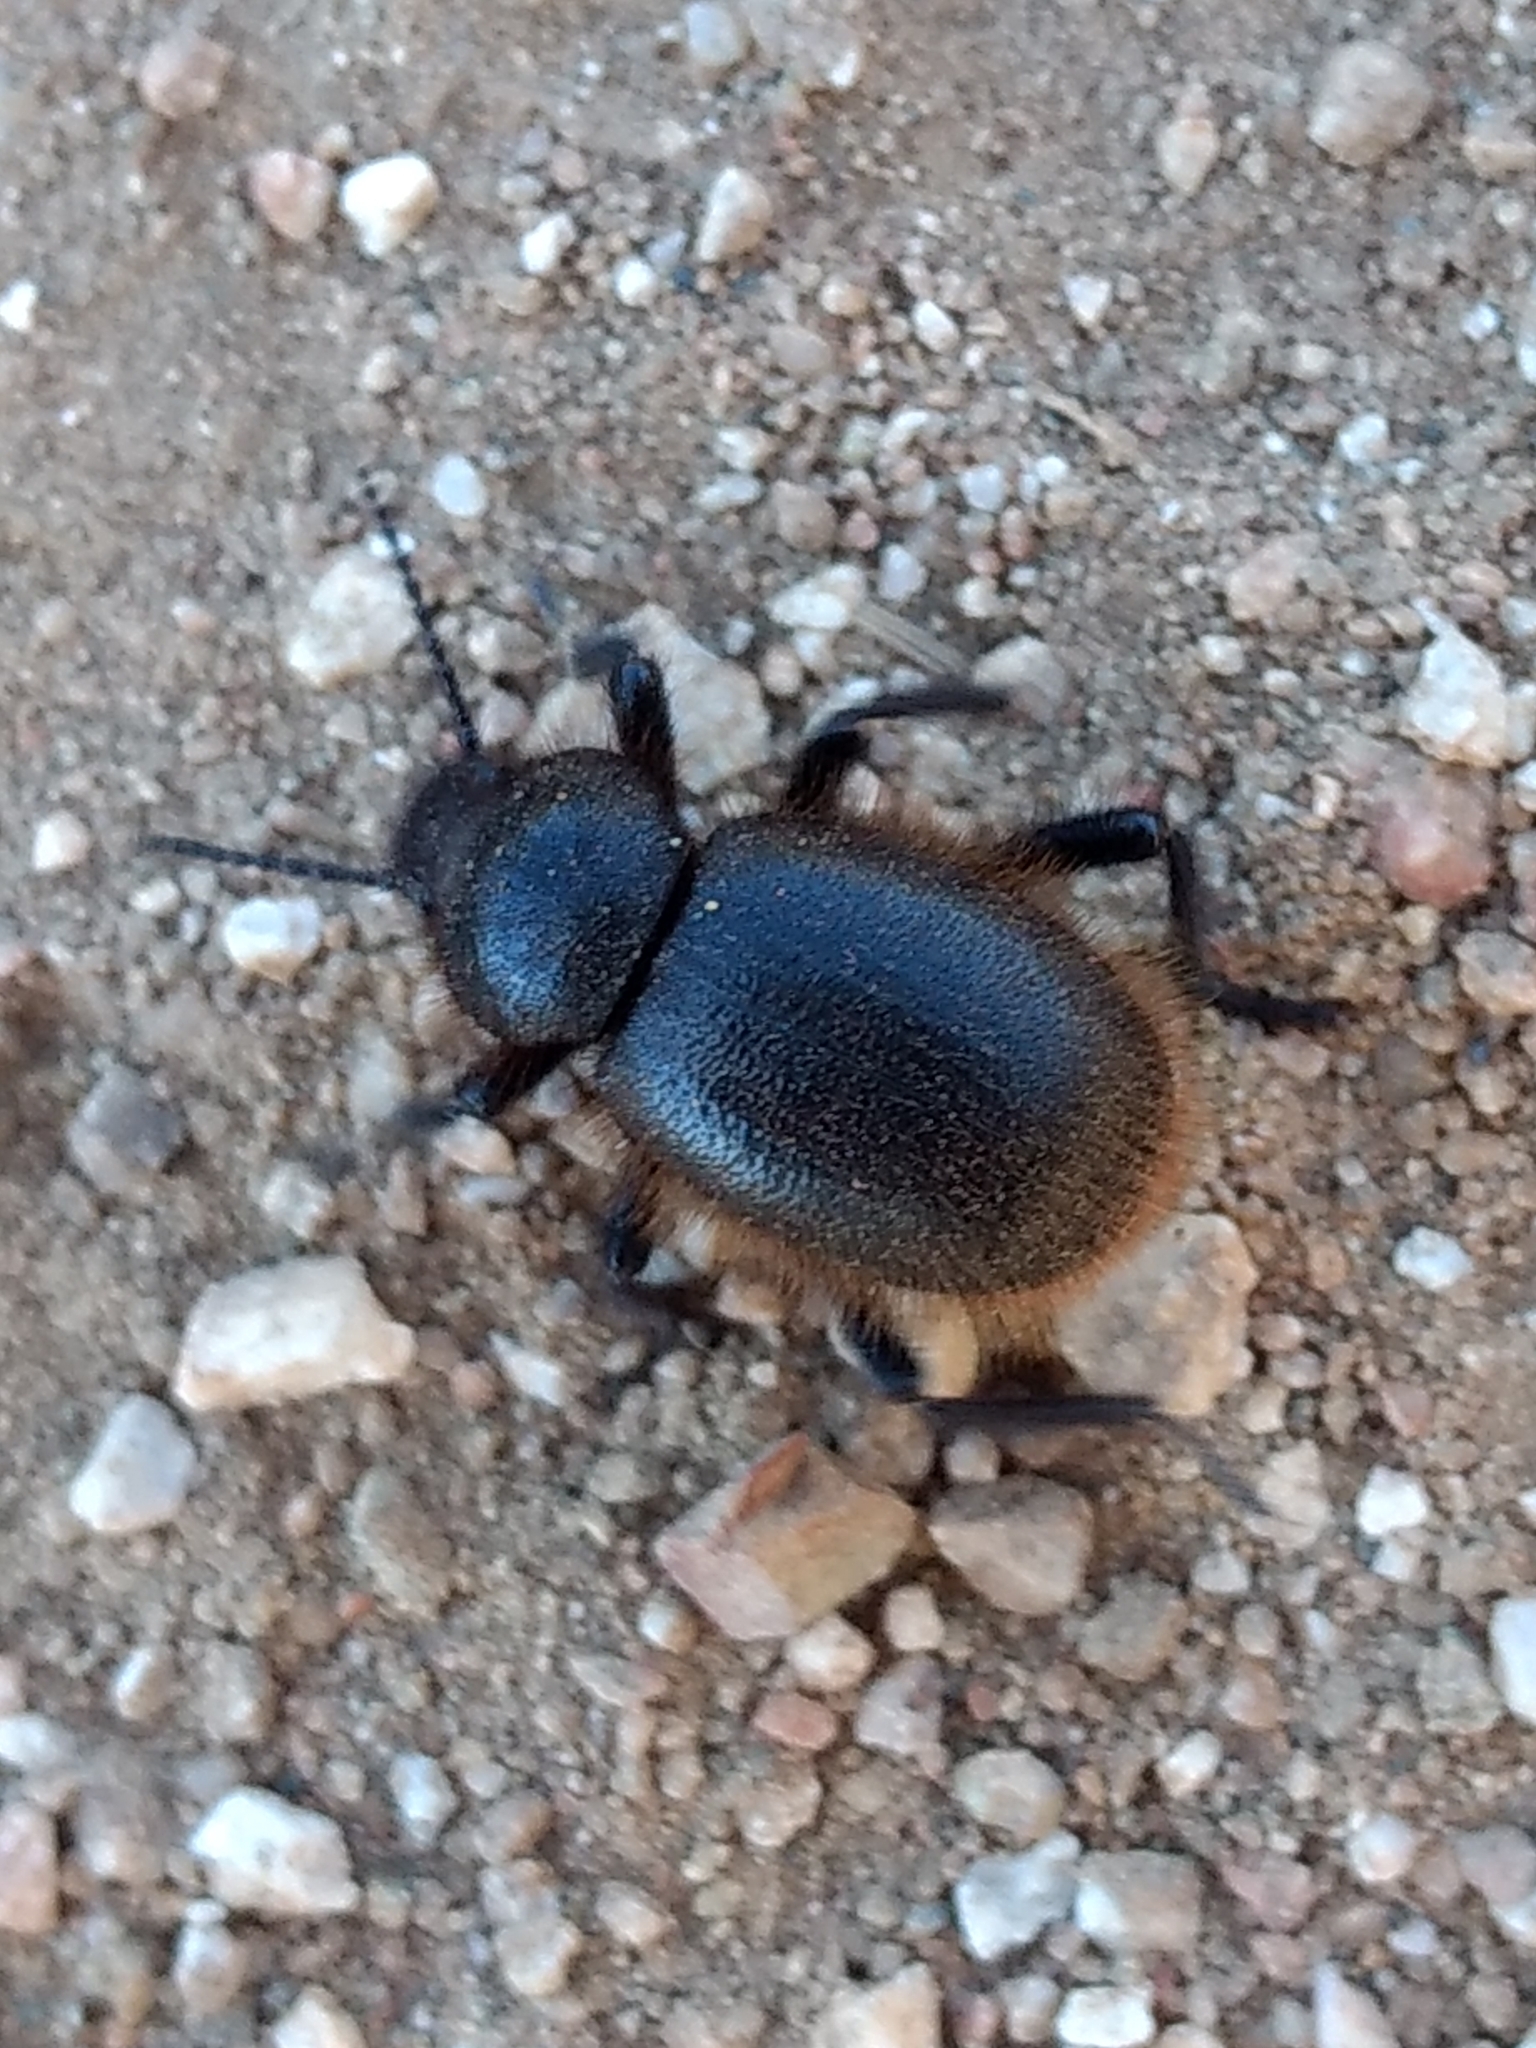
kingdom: Animalia
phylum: Arthropoda
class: Insecta
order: Coleoptera
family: Tenebrionidae
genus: Eleodes
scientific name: Eleodes osculans
